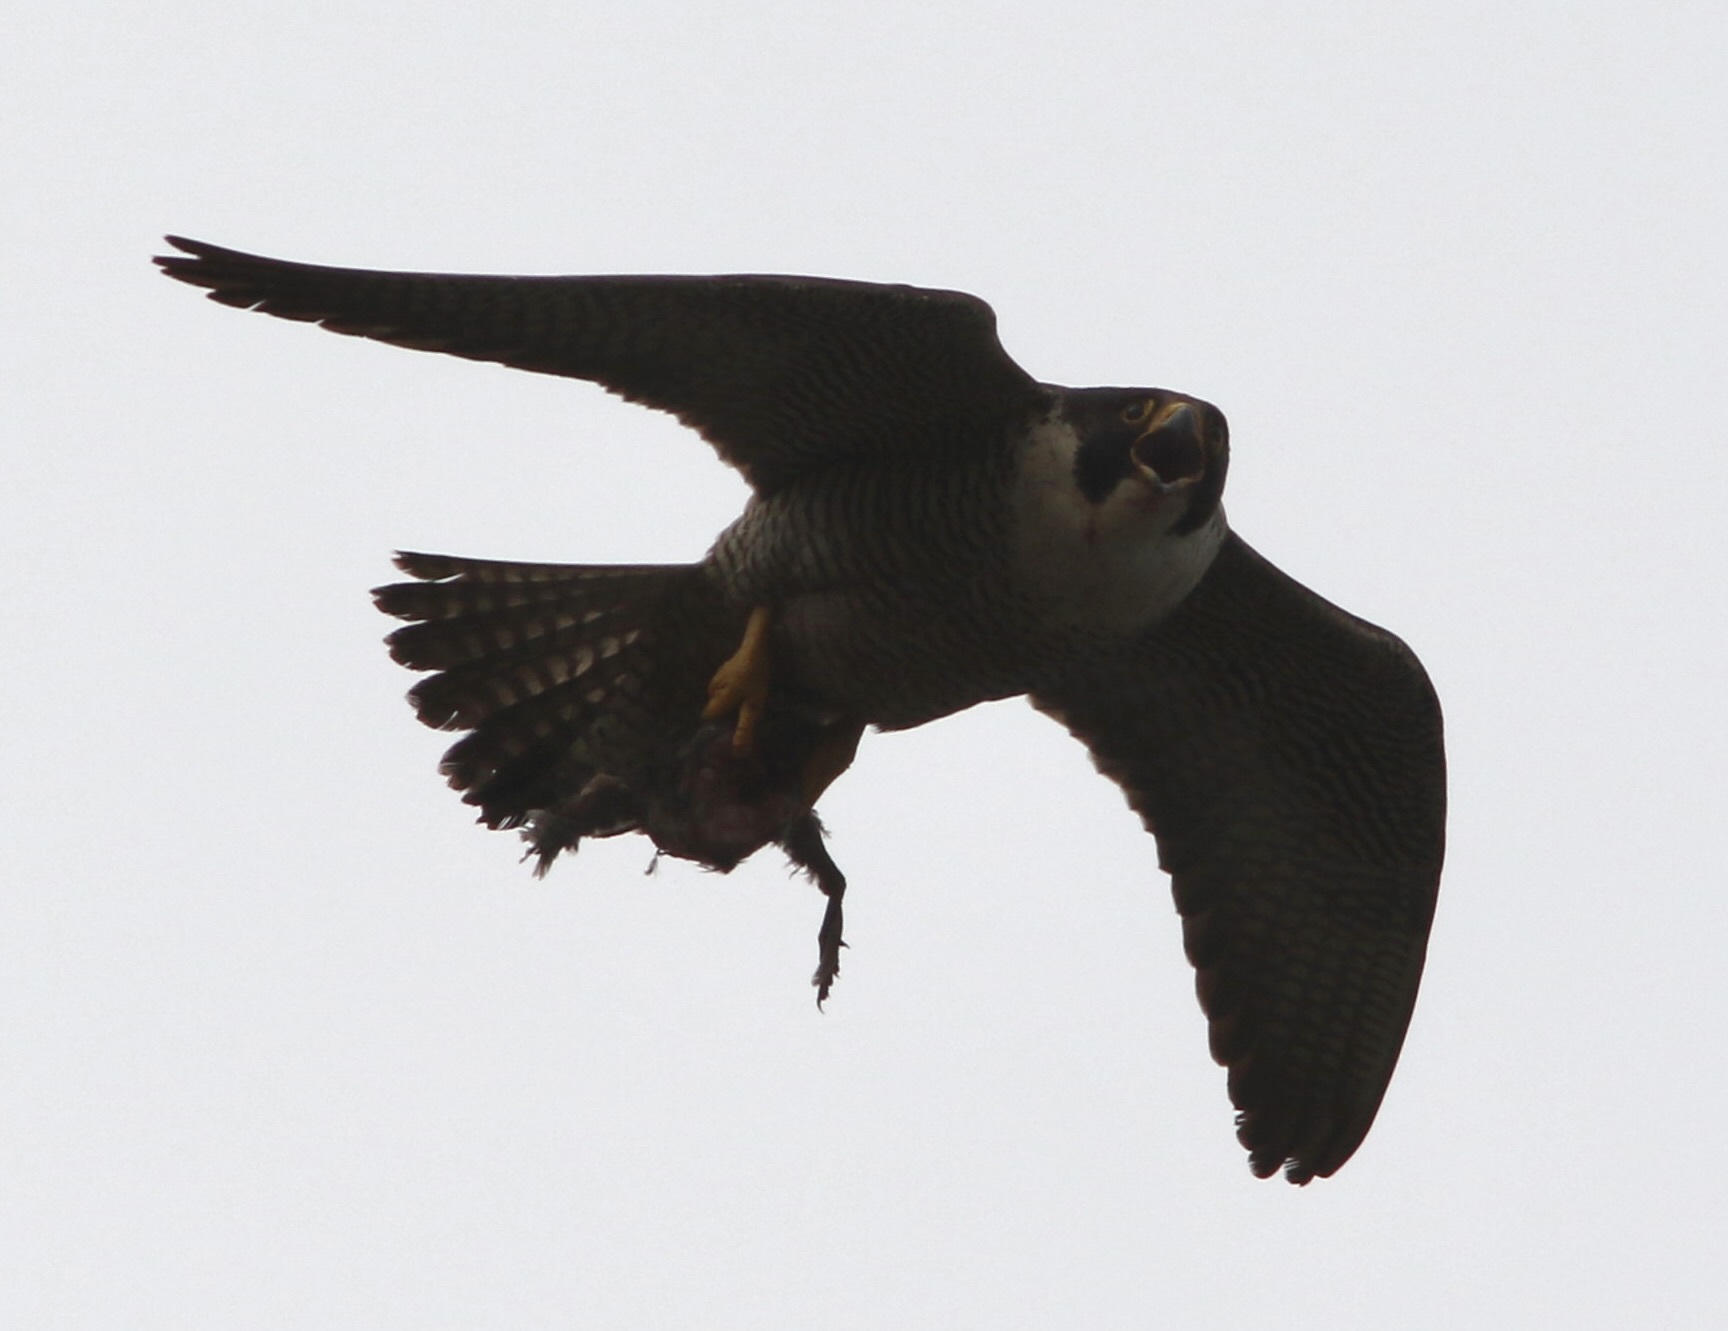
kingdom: Animalia
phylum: Chordata
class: Aves
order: Falconiformes
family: Falconidae
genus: Falco
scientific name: Falco peregrinus
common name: Peregrine falcon
